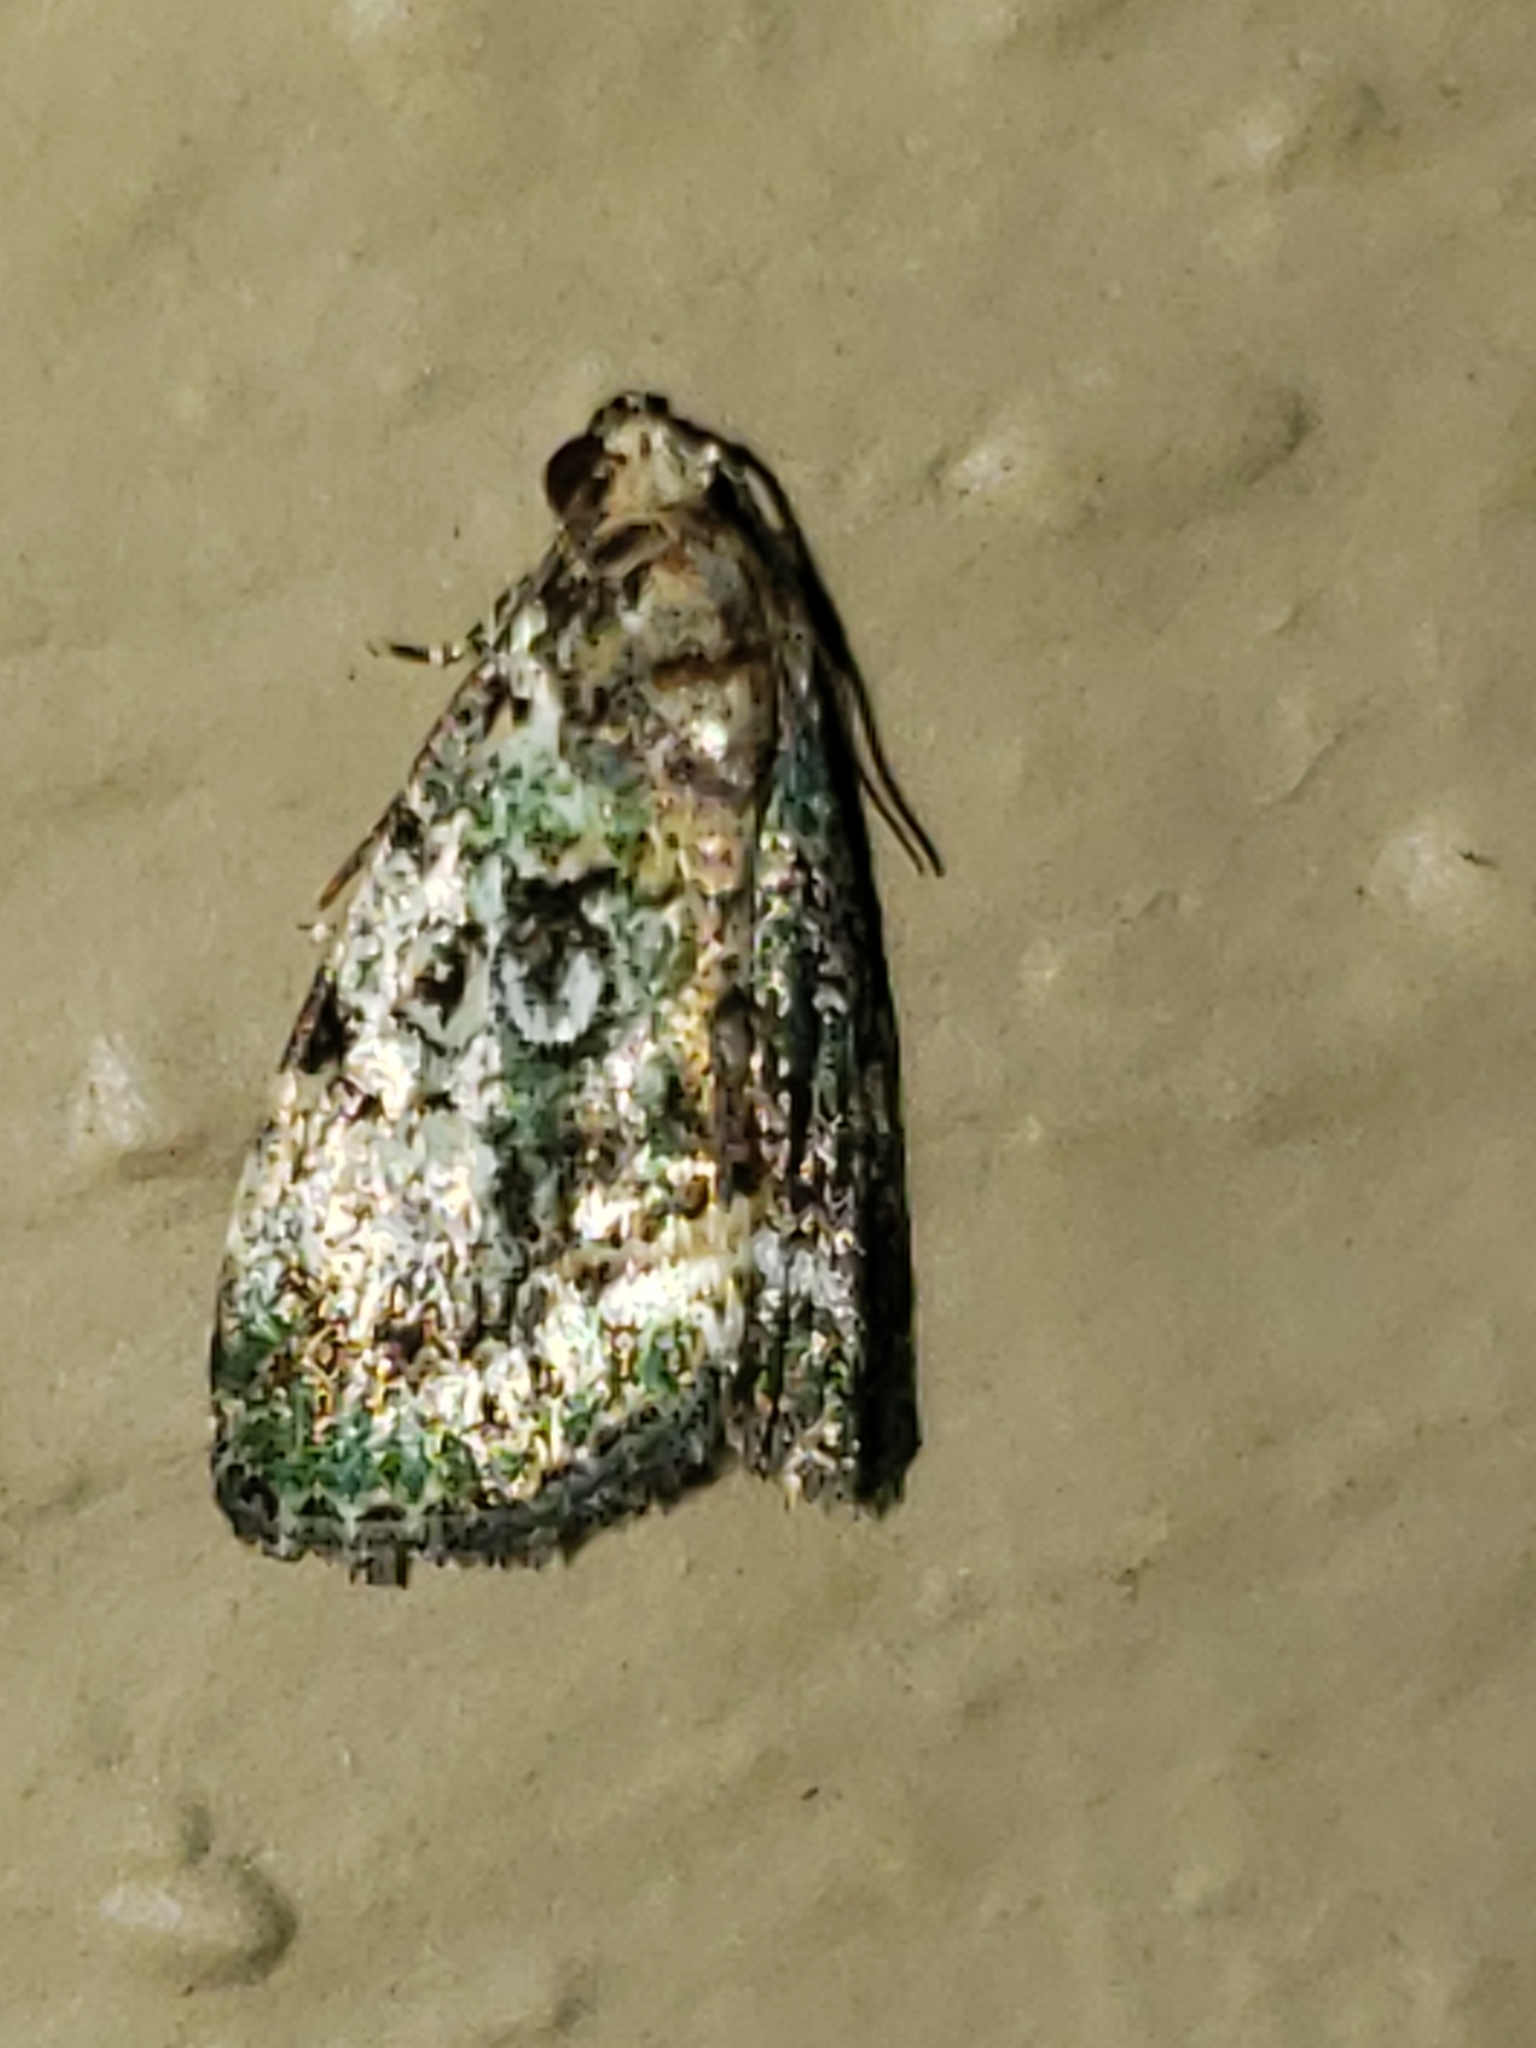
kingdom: Animalia
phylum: Arthropoda
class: Insecta
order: Lepidoptera
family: Noctuidae
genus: Lithacodia
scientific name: Lithacodia musta
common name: Small mossy glyph
